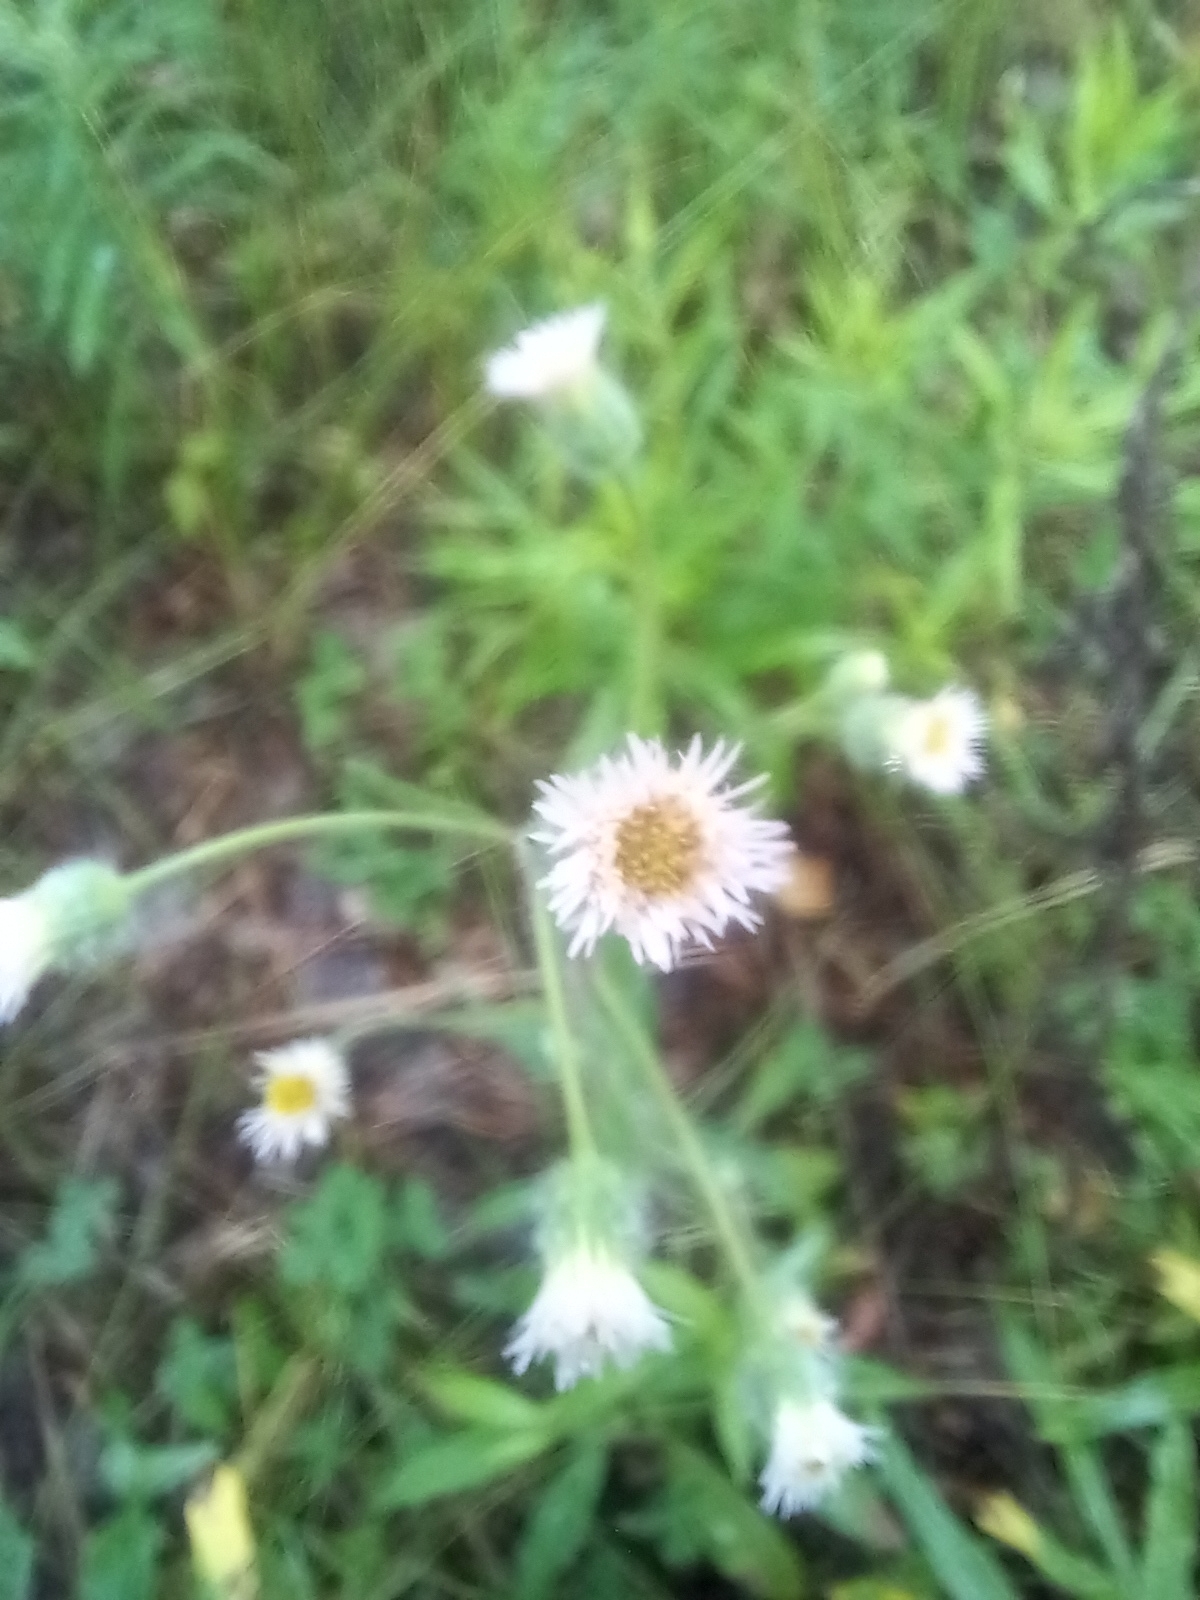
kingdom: Plantae
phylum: Tracheophyta
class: Magnoliopsida
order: Asterales
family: Asteraceae
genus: Erigeron
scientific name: Erigeron acris
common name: Blue fleabane
